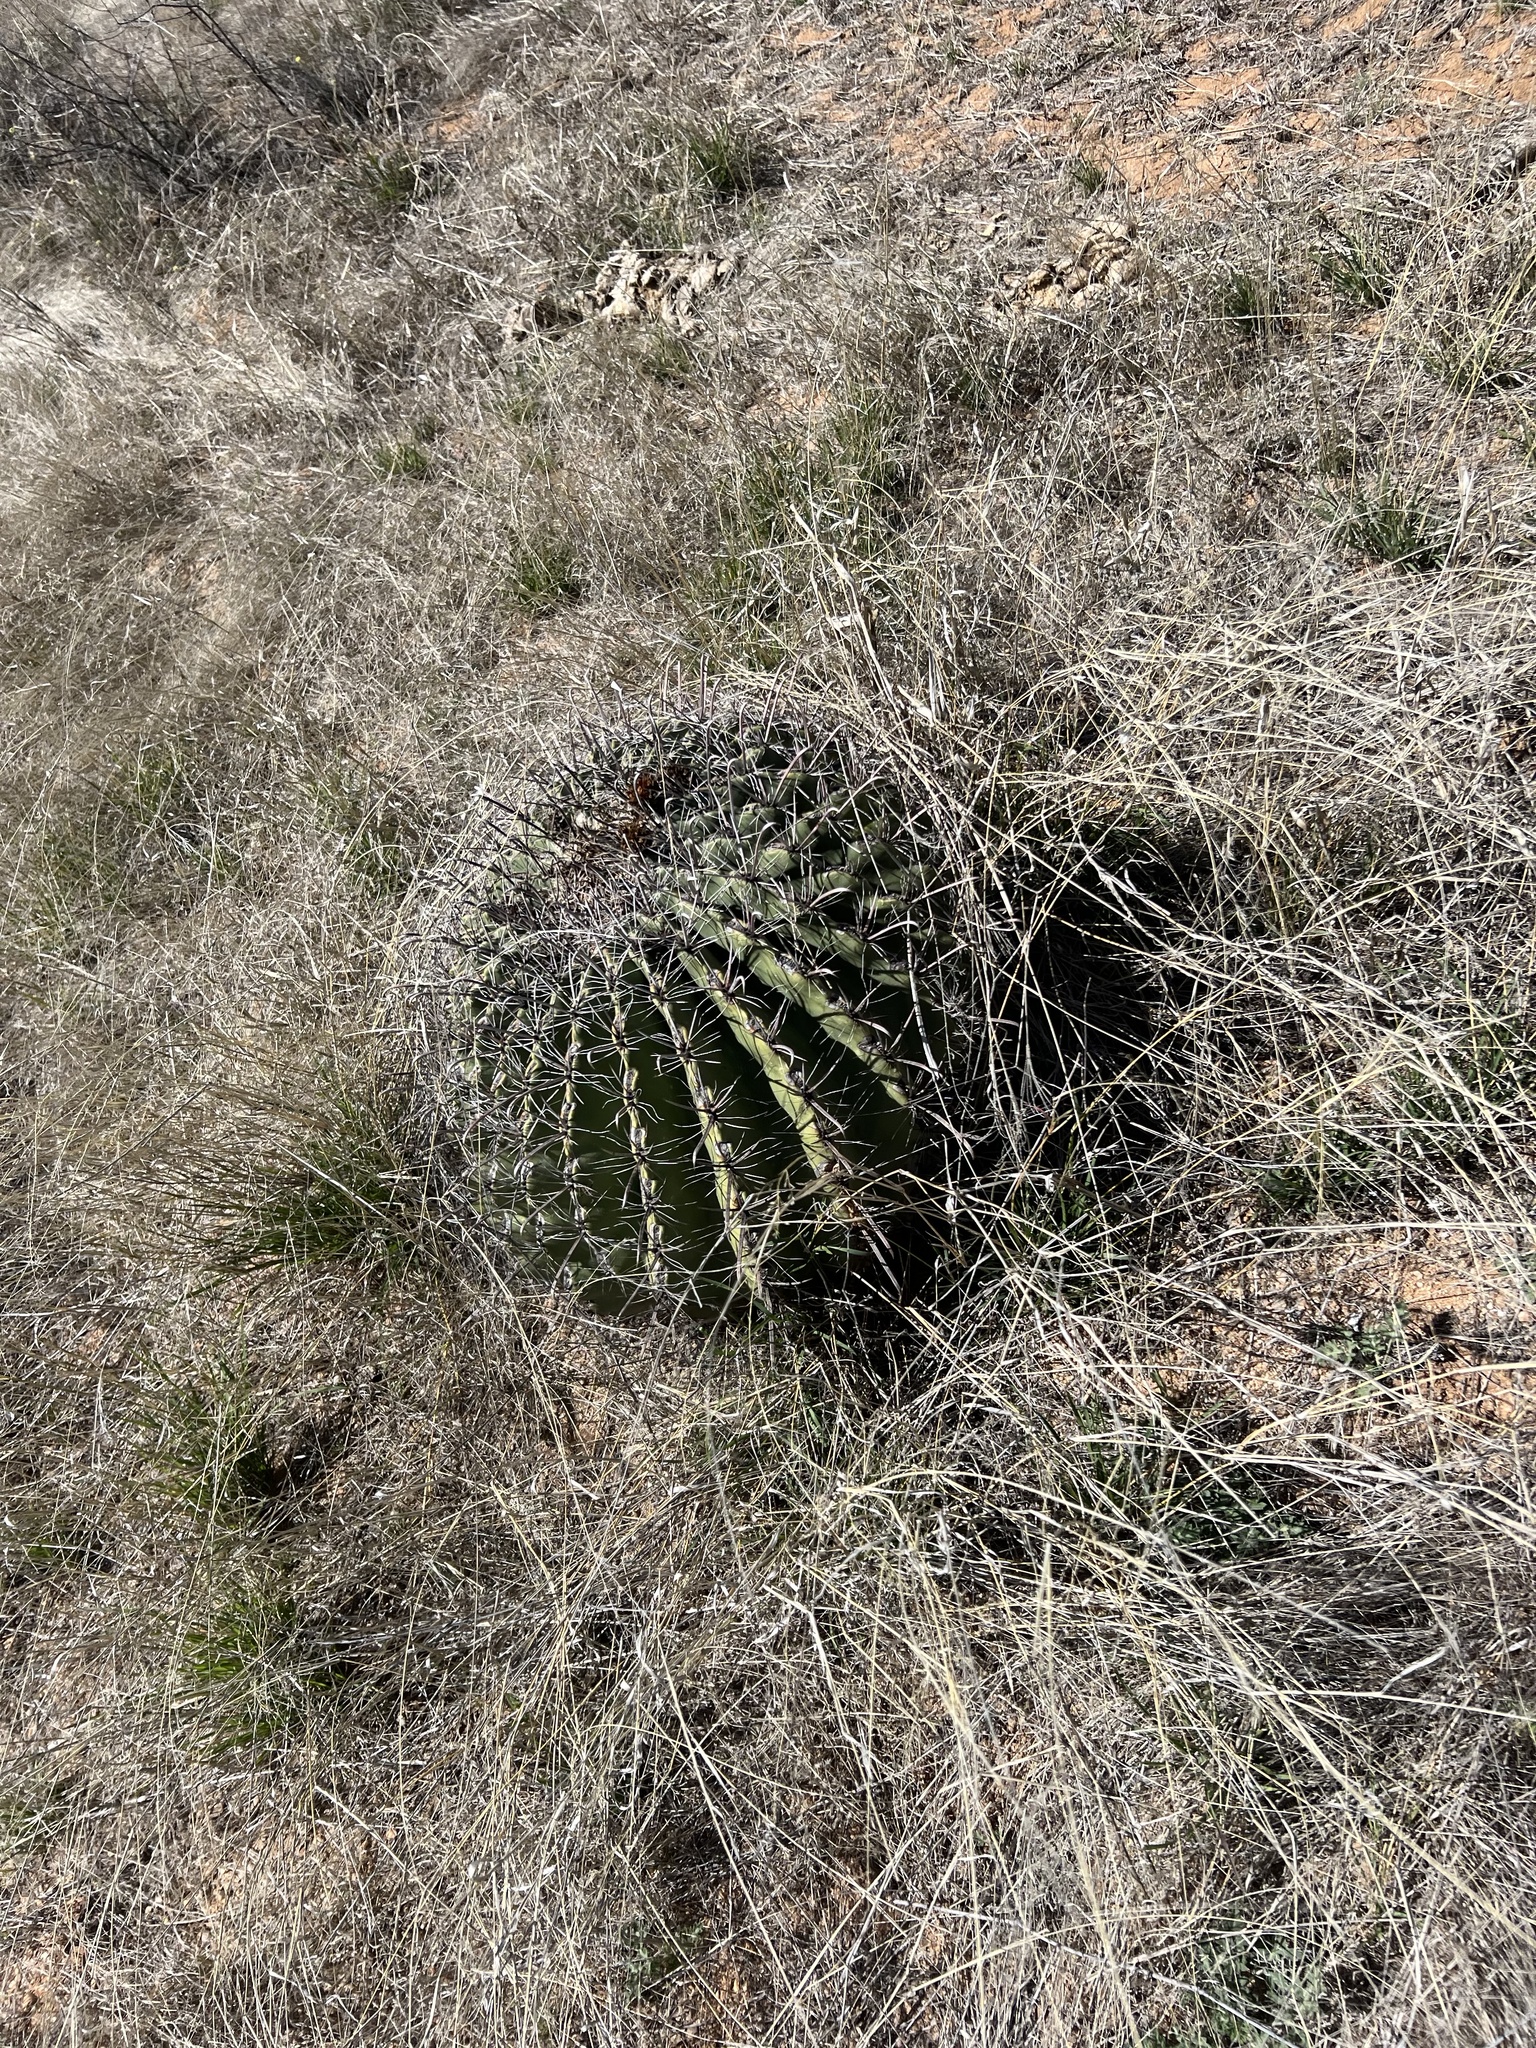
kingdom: Plantae
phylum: Tracheophyta
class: Magnoliopsida
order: Caryophyllales
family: Cactaceae
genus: Ferocactus
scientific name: Ferocactus wislizeni
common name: Candy barrel cactus
